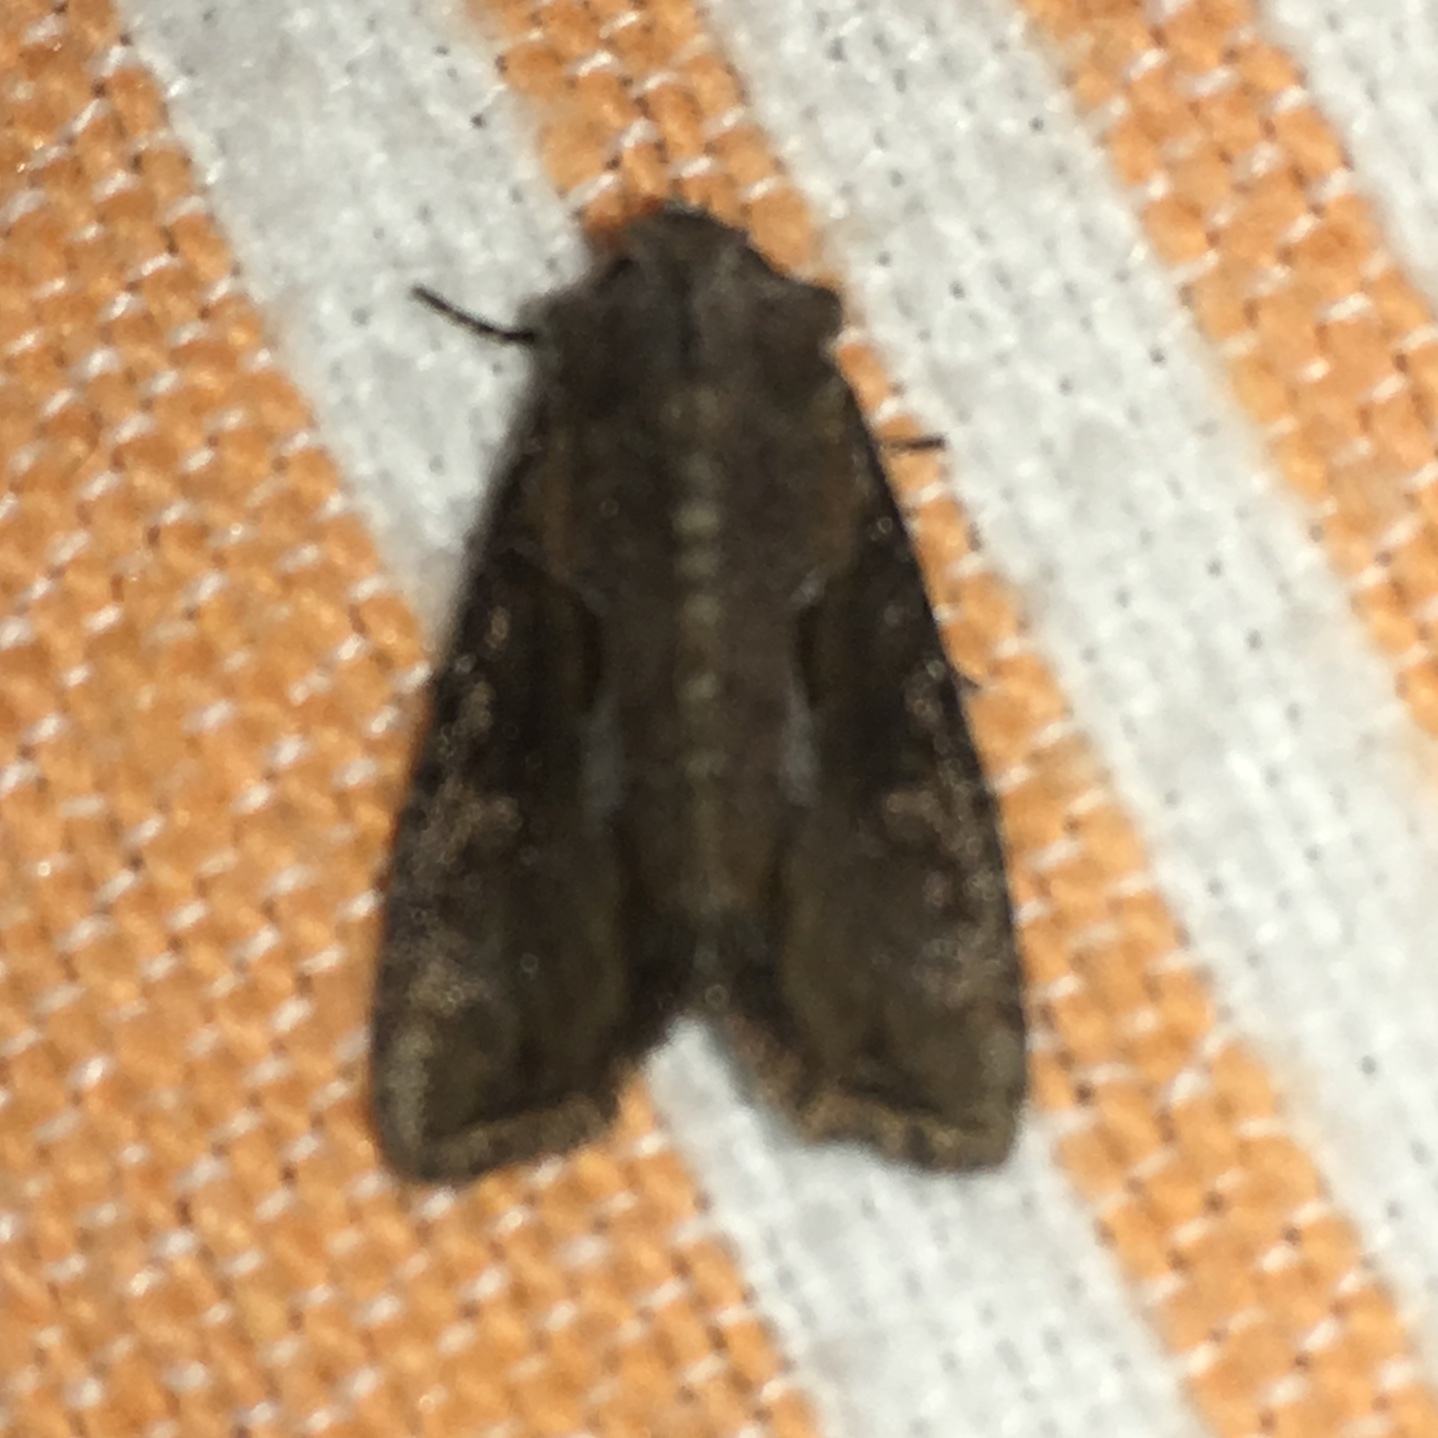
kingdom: Animalia
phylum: Arthropoda
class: Insecta
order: Lepidoptera
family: Noctuidae
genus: Lateroligia
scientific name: Lateroligia ophiogramma
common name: Double lobed
